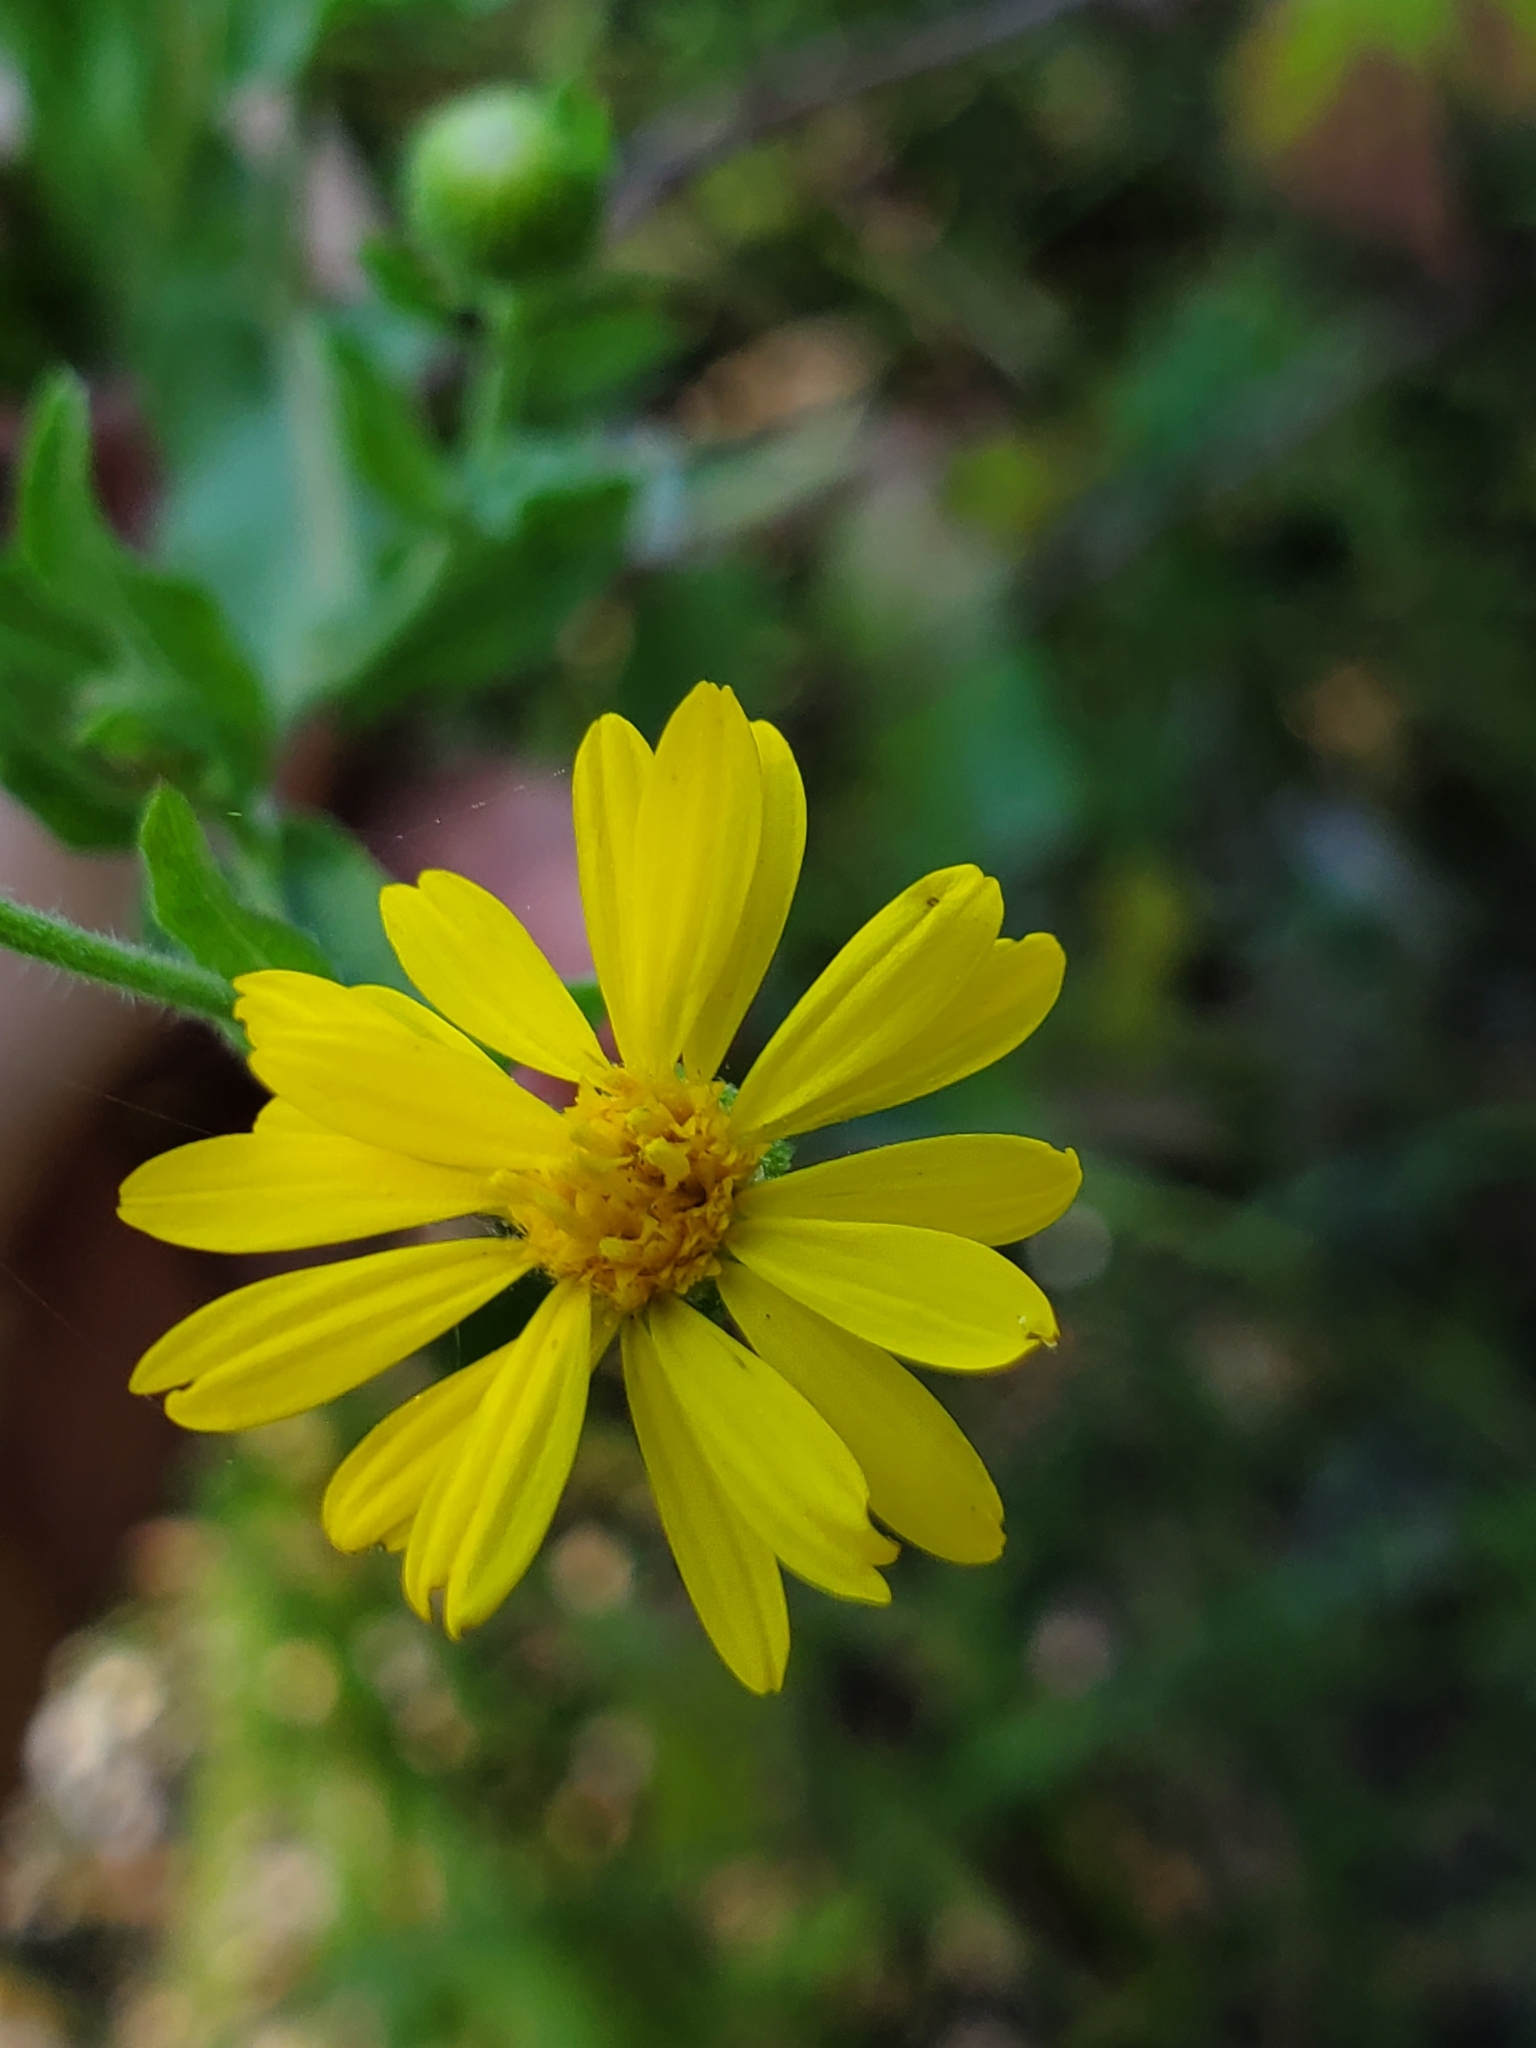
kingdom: Plantae
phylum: Tracheophyta
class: Magnoliopsida
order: Asterales
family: Asteraceae
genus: Heterotheca
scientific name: Heterotheca subaxillaris
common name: Camphorweed
